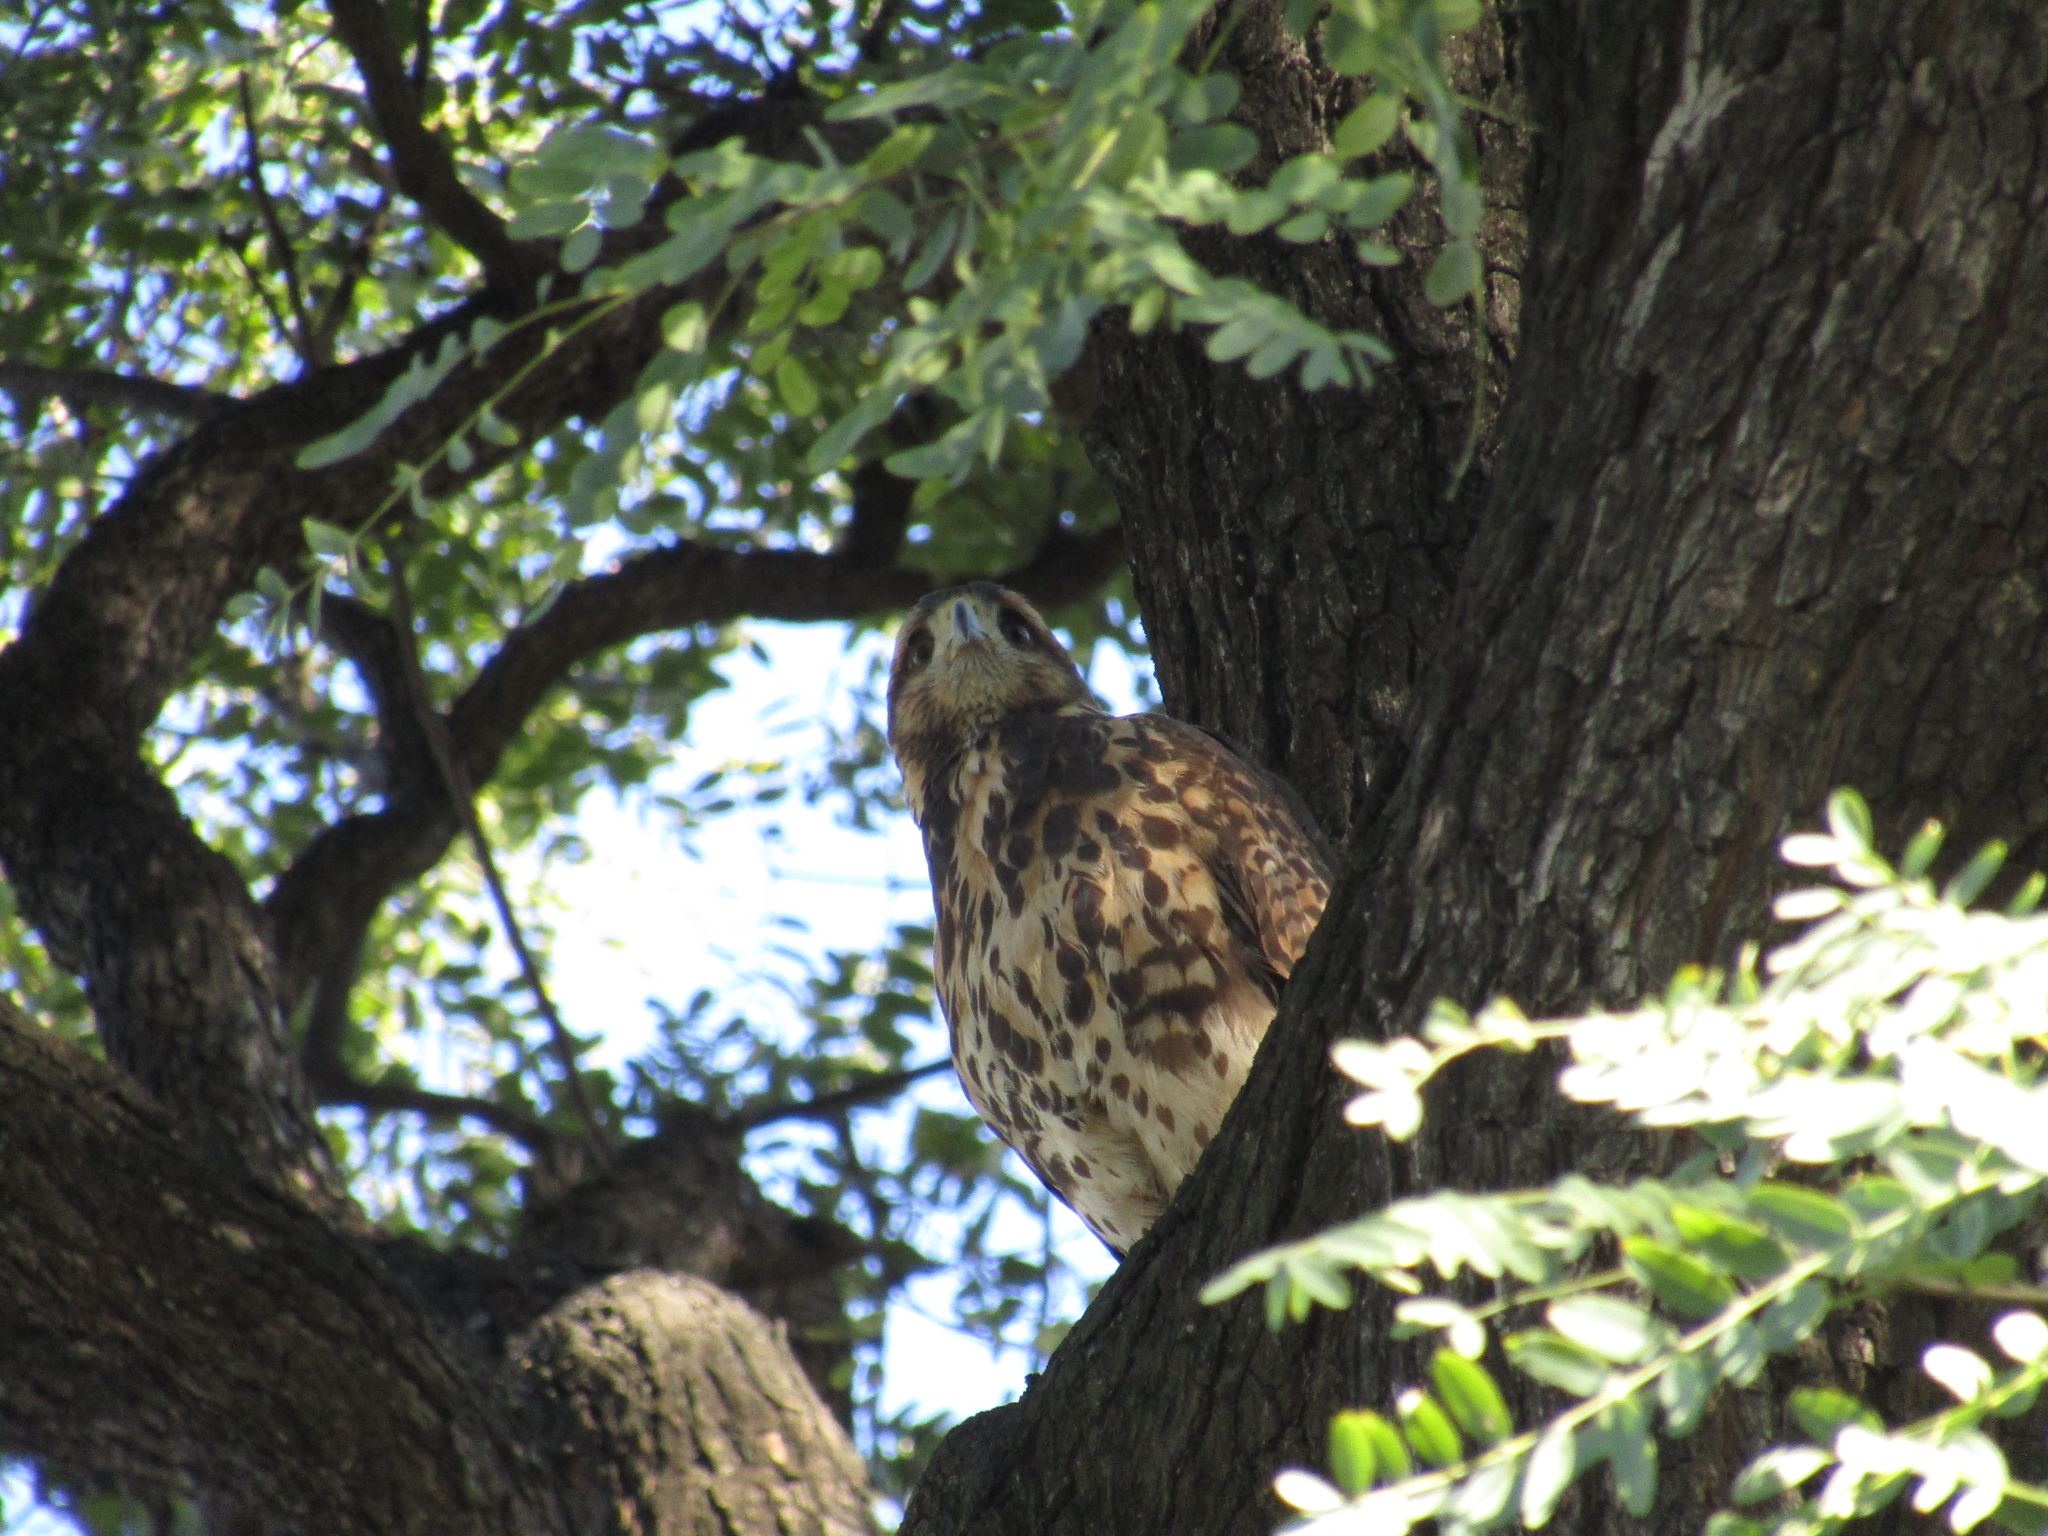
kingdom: Animalia
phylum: Chordata
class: Aves
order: Accipitriformes
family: Accipitridae
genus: Parabuteo
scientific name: Parabuteo unicinctus
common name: Harris's hawk
